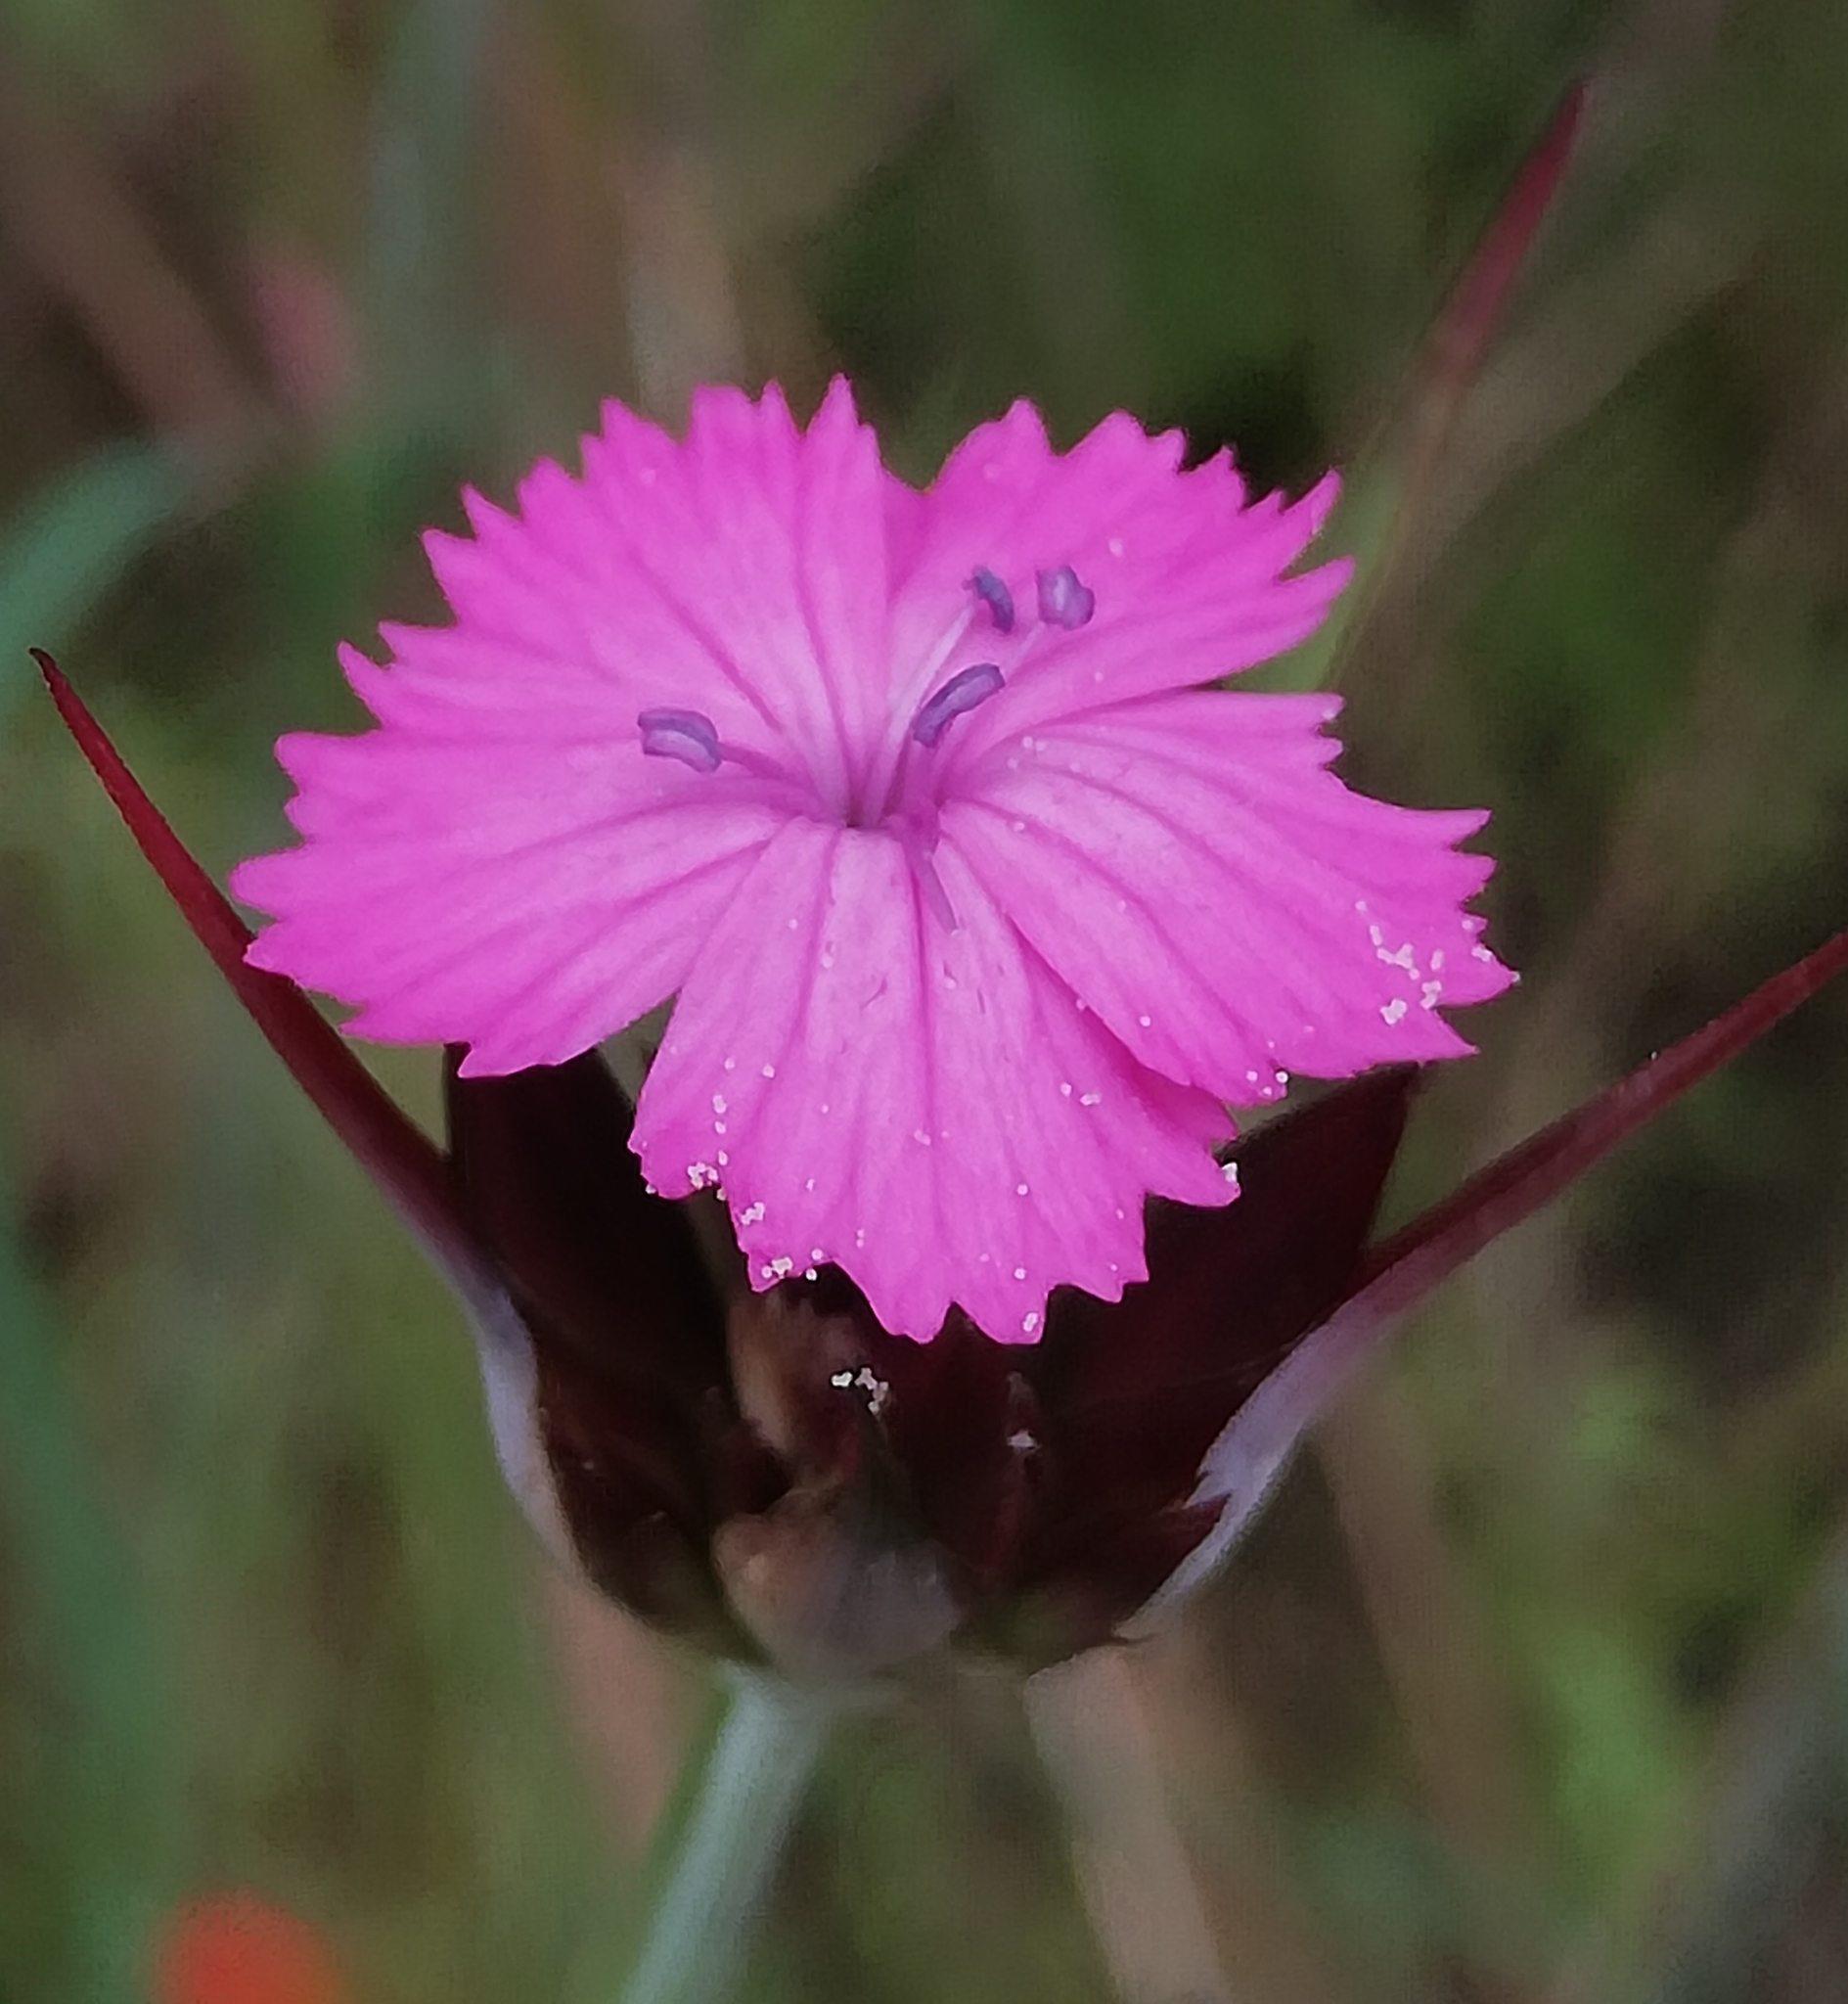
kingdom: Plantae
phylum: Tracheophyta
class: Magnoliopsida
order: Caryophyllales
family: Caryophyllaceae
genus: Dianthus
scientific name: Dianthus giganteus
